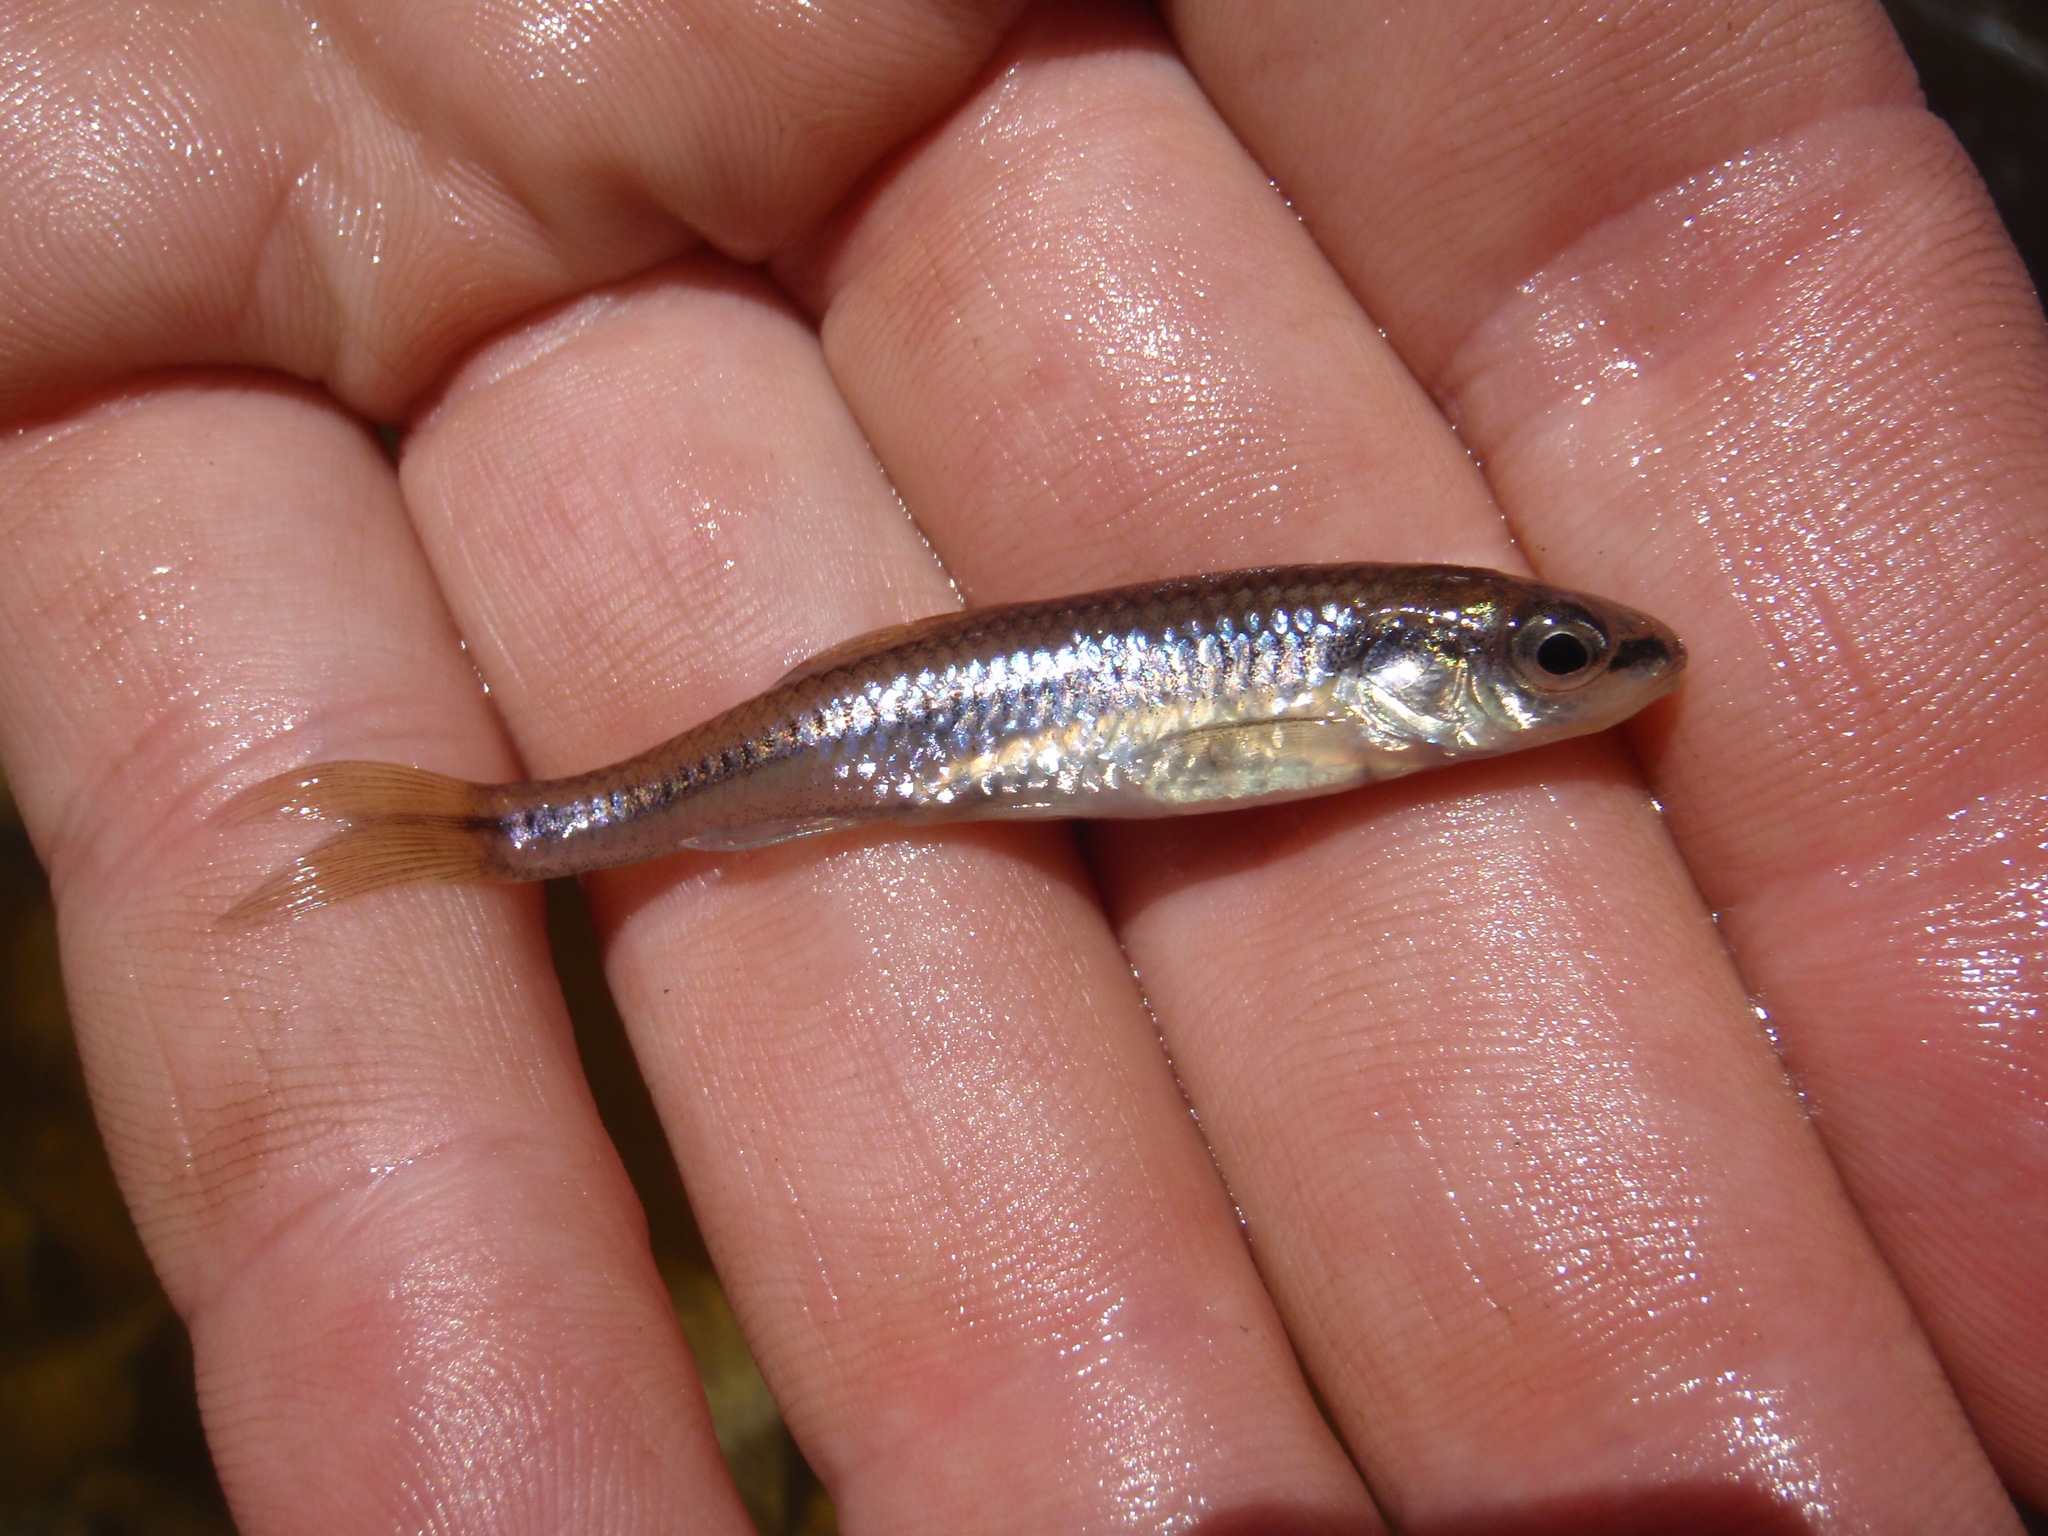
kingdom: Animalia
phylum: Chordata
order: Cypriniformes
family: Cyprinidae
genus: Notropis
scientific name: Notropis heterolepis
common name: Blacknose shiner
